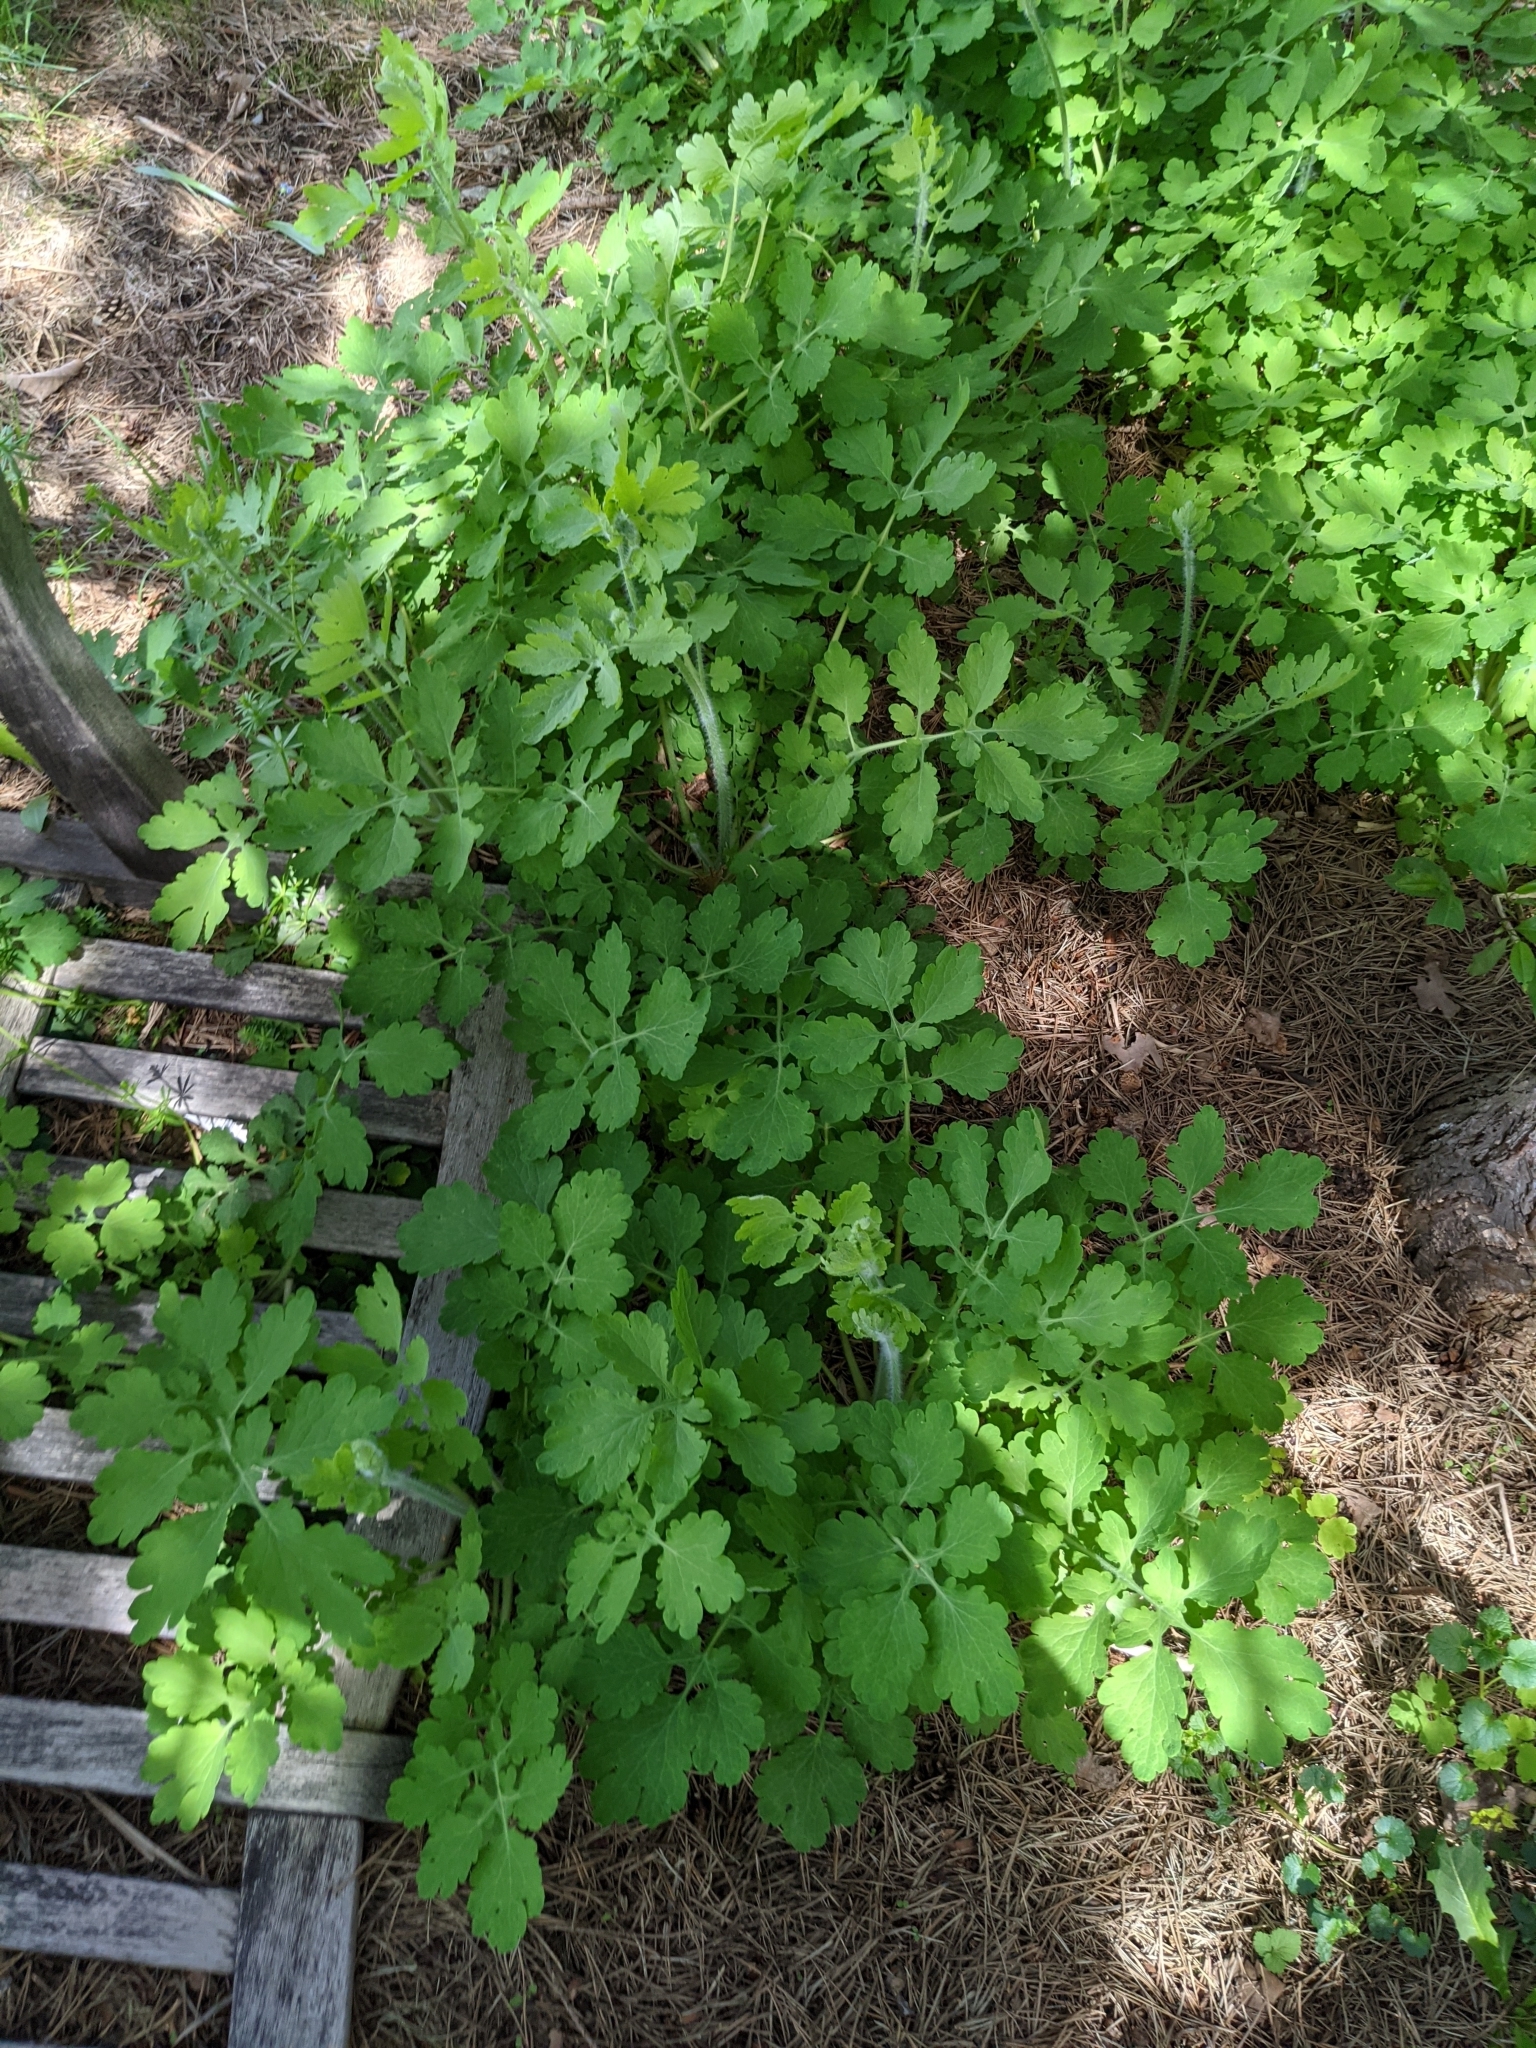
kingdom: Plantae
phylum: Tracheophyta
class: Magnoliopsida
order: Ranunculales
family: Papaveraceae
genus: Chelidonium
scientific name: Chelidonium majus
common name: Greater celandine
